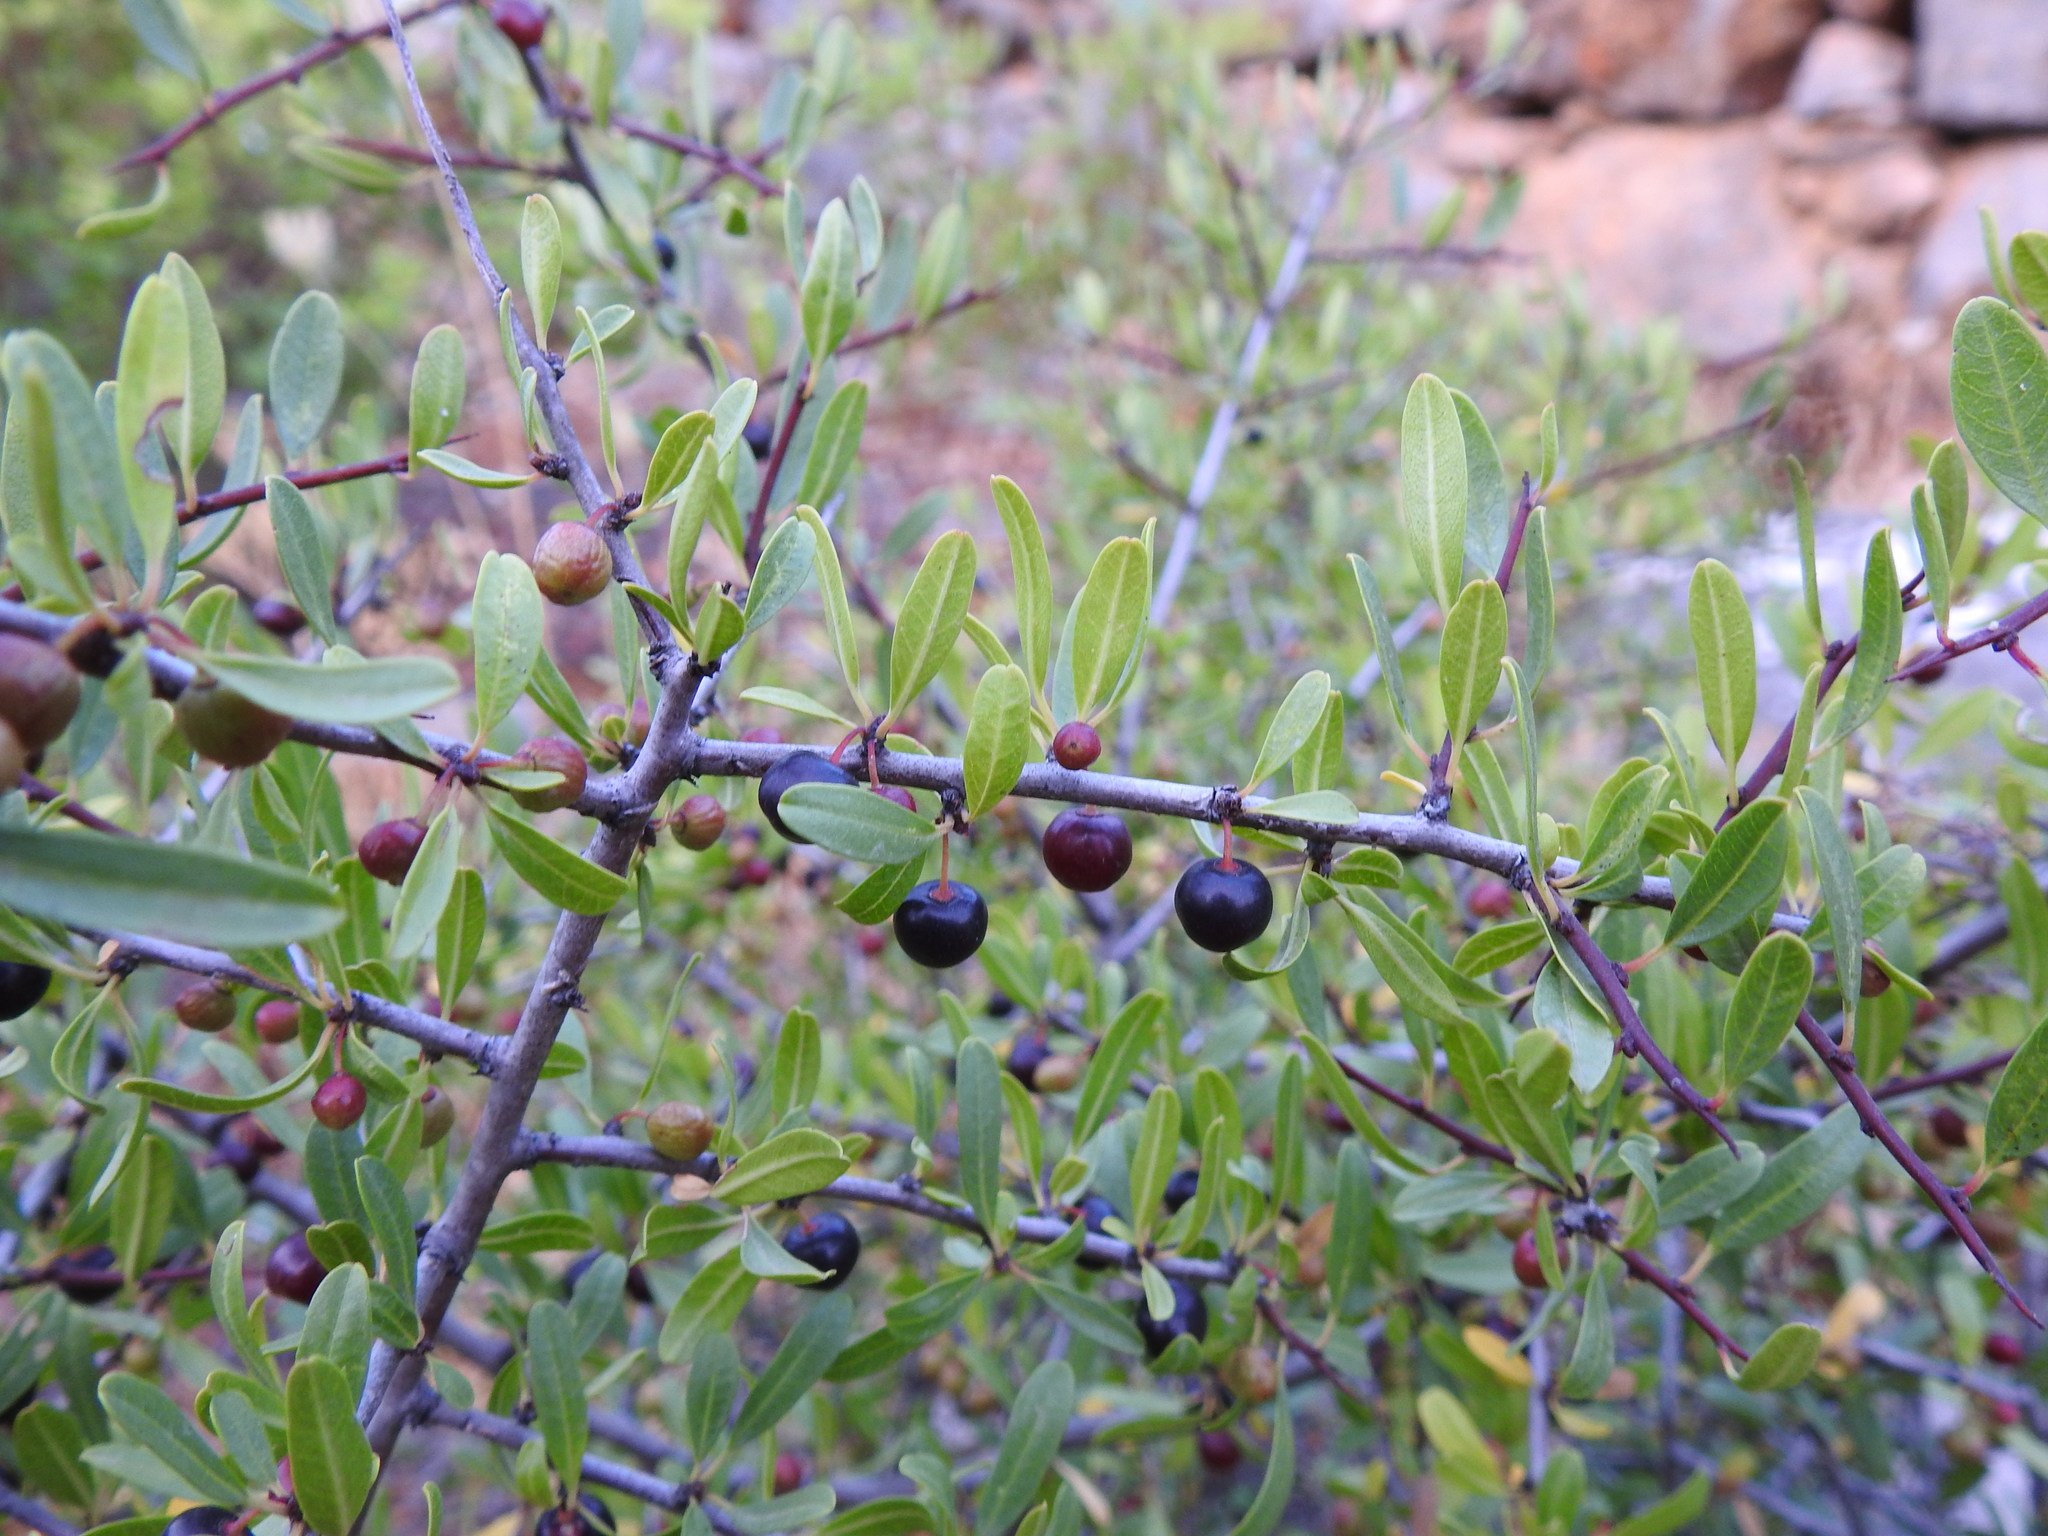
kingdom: Plantae
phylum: Tracheophyta
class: Magnoliopsida
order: Rosales
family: Rhamnaceae
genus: Rhamnus
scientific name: Rhamnus oleoides
